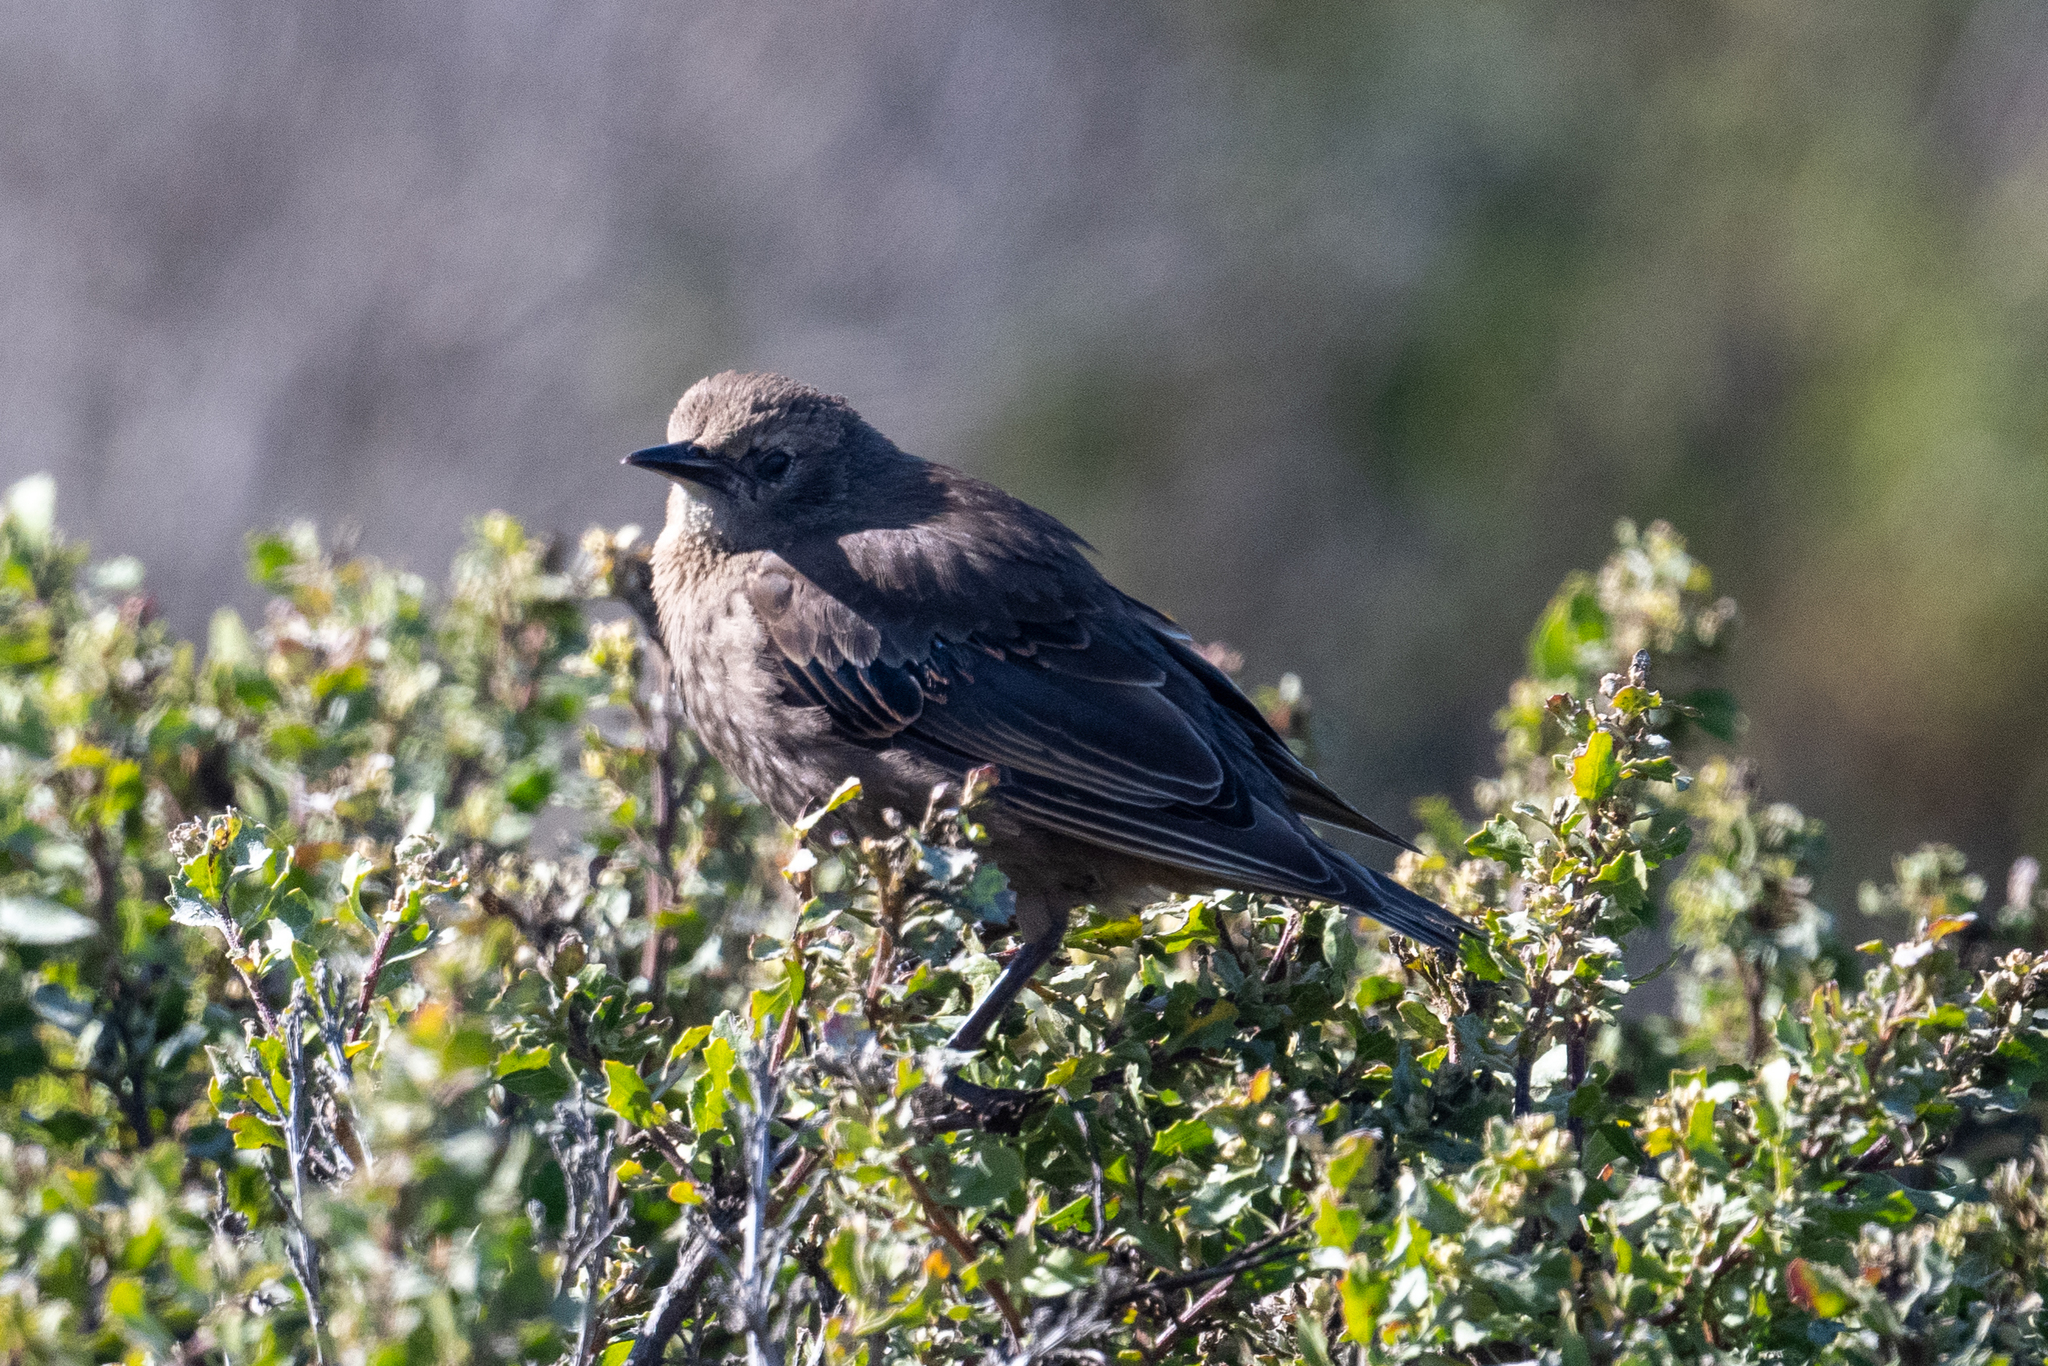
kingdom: Animalia
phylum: Chordata
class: Aves
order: Passeriformes
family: Sturnidae
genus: Sturnus
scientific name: Sturnus vulgaris
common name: Common starling
